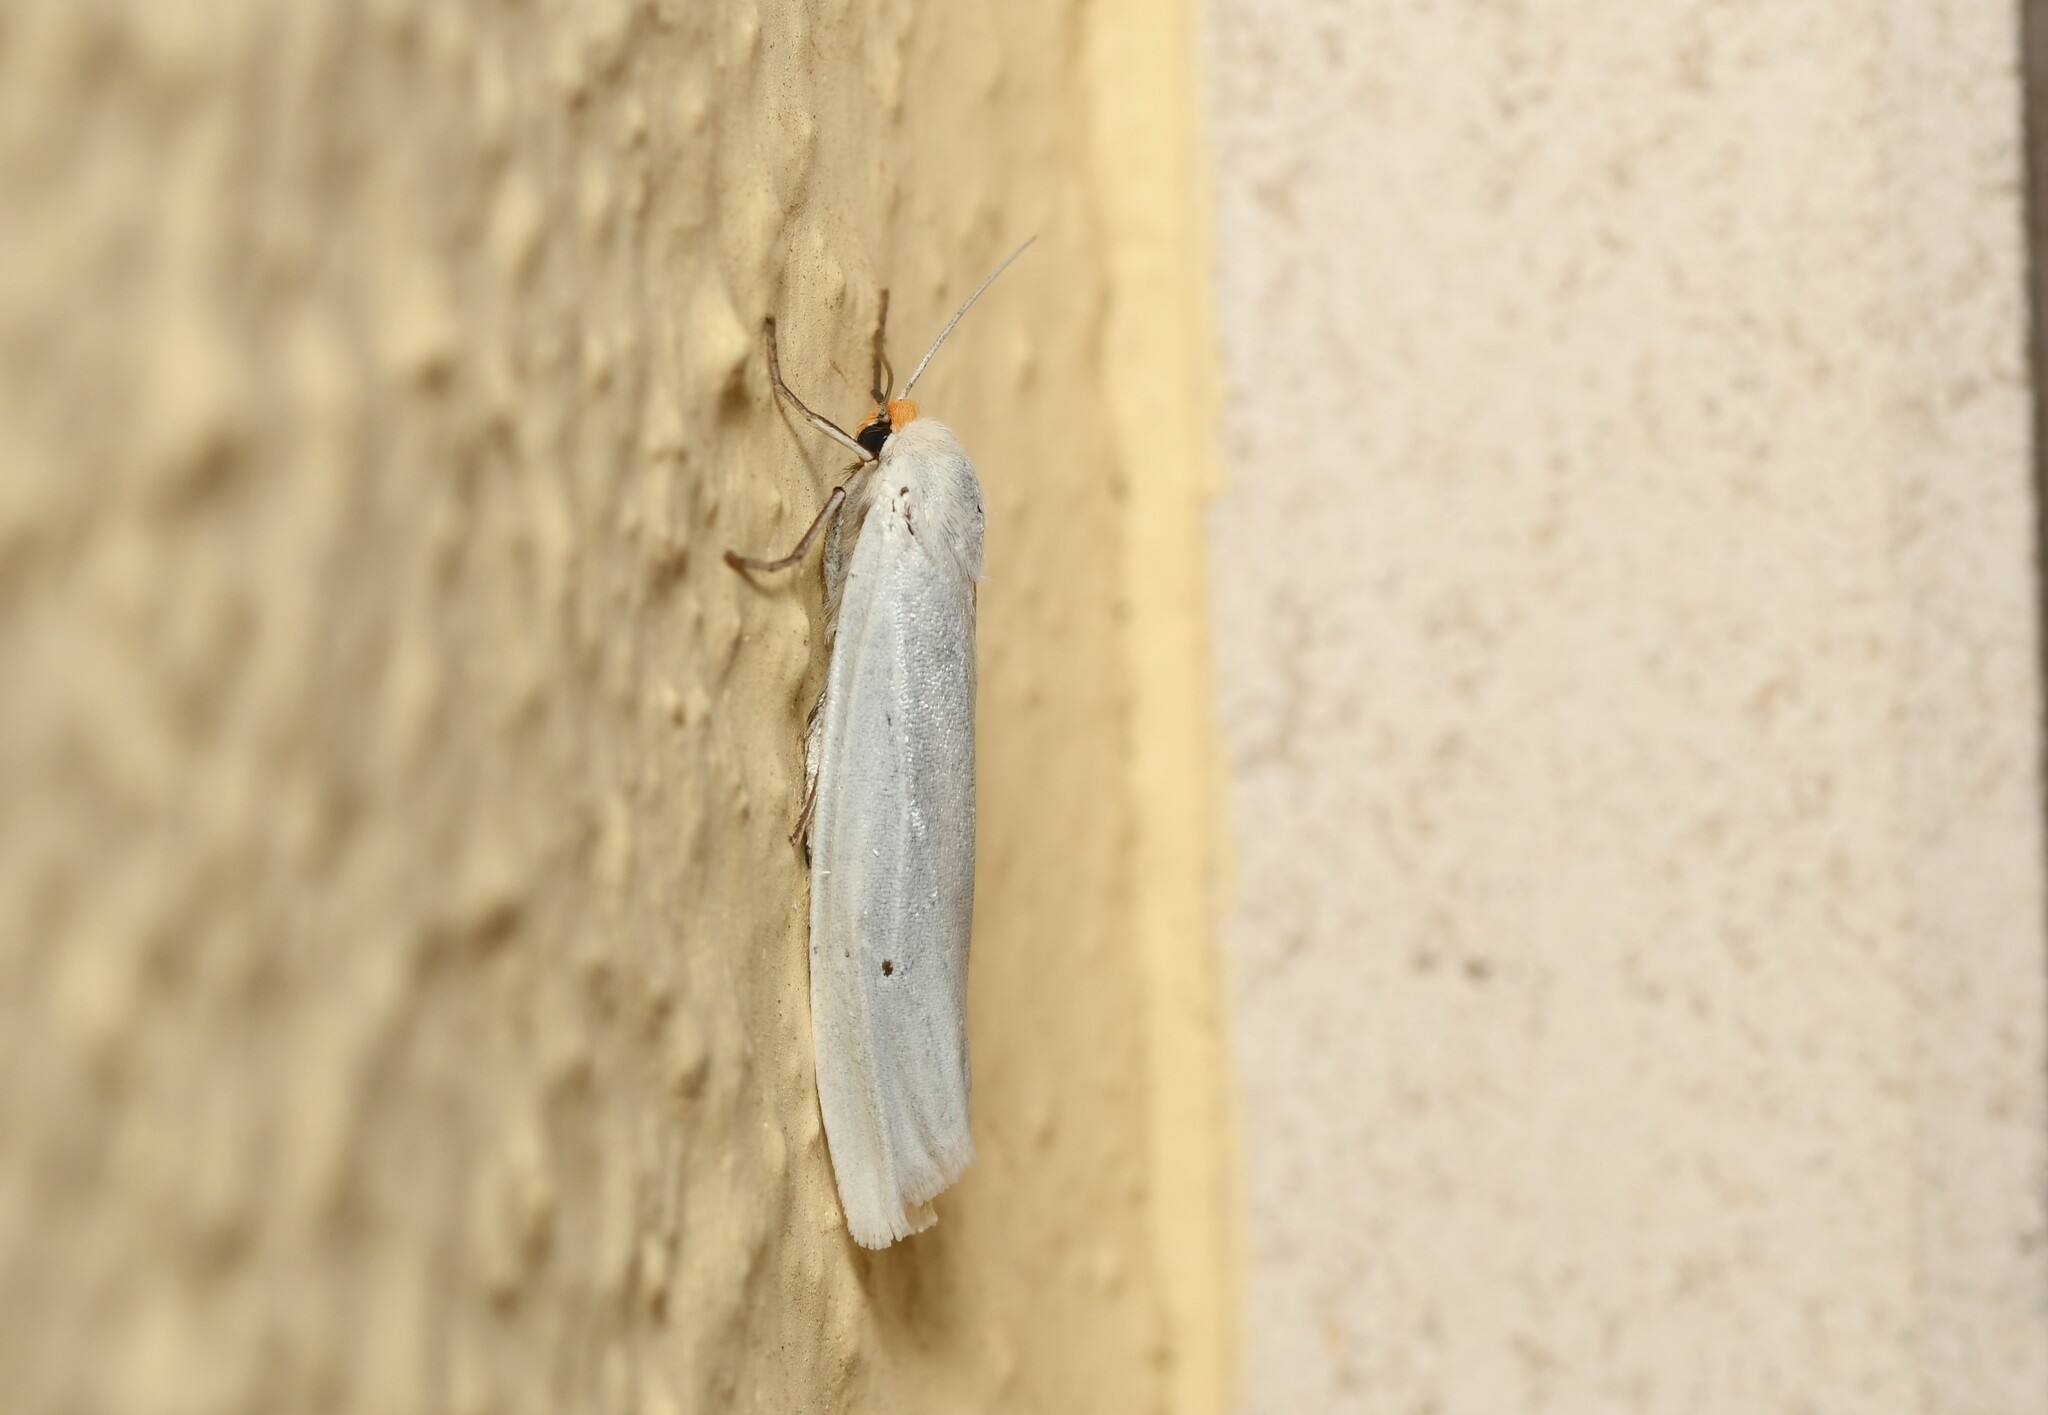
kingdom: Animalia
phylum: Arthropoda
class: Insecta
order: Lepidoptera
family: Erebidae
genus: Coscinia
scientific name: Coscinia cribraria
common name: Speckled footman
